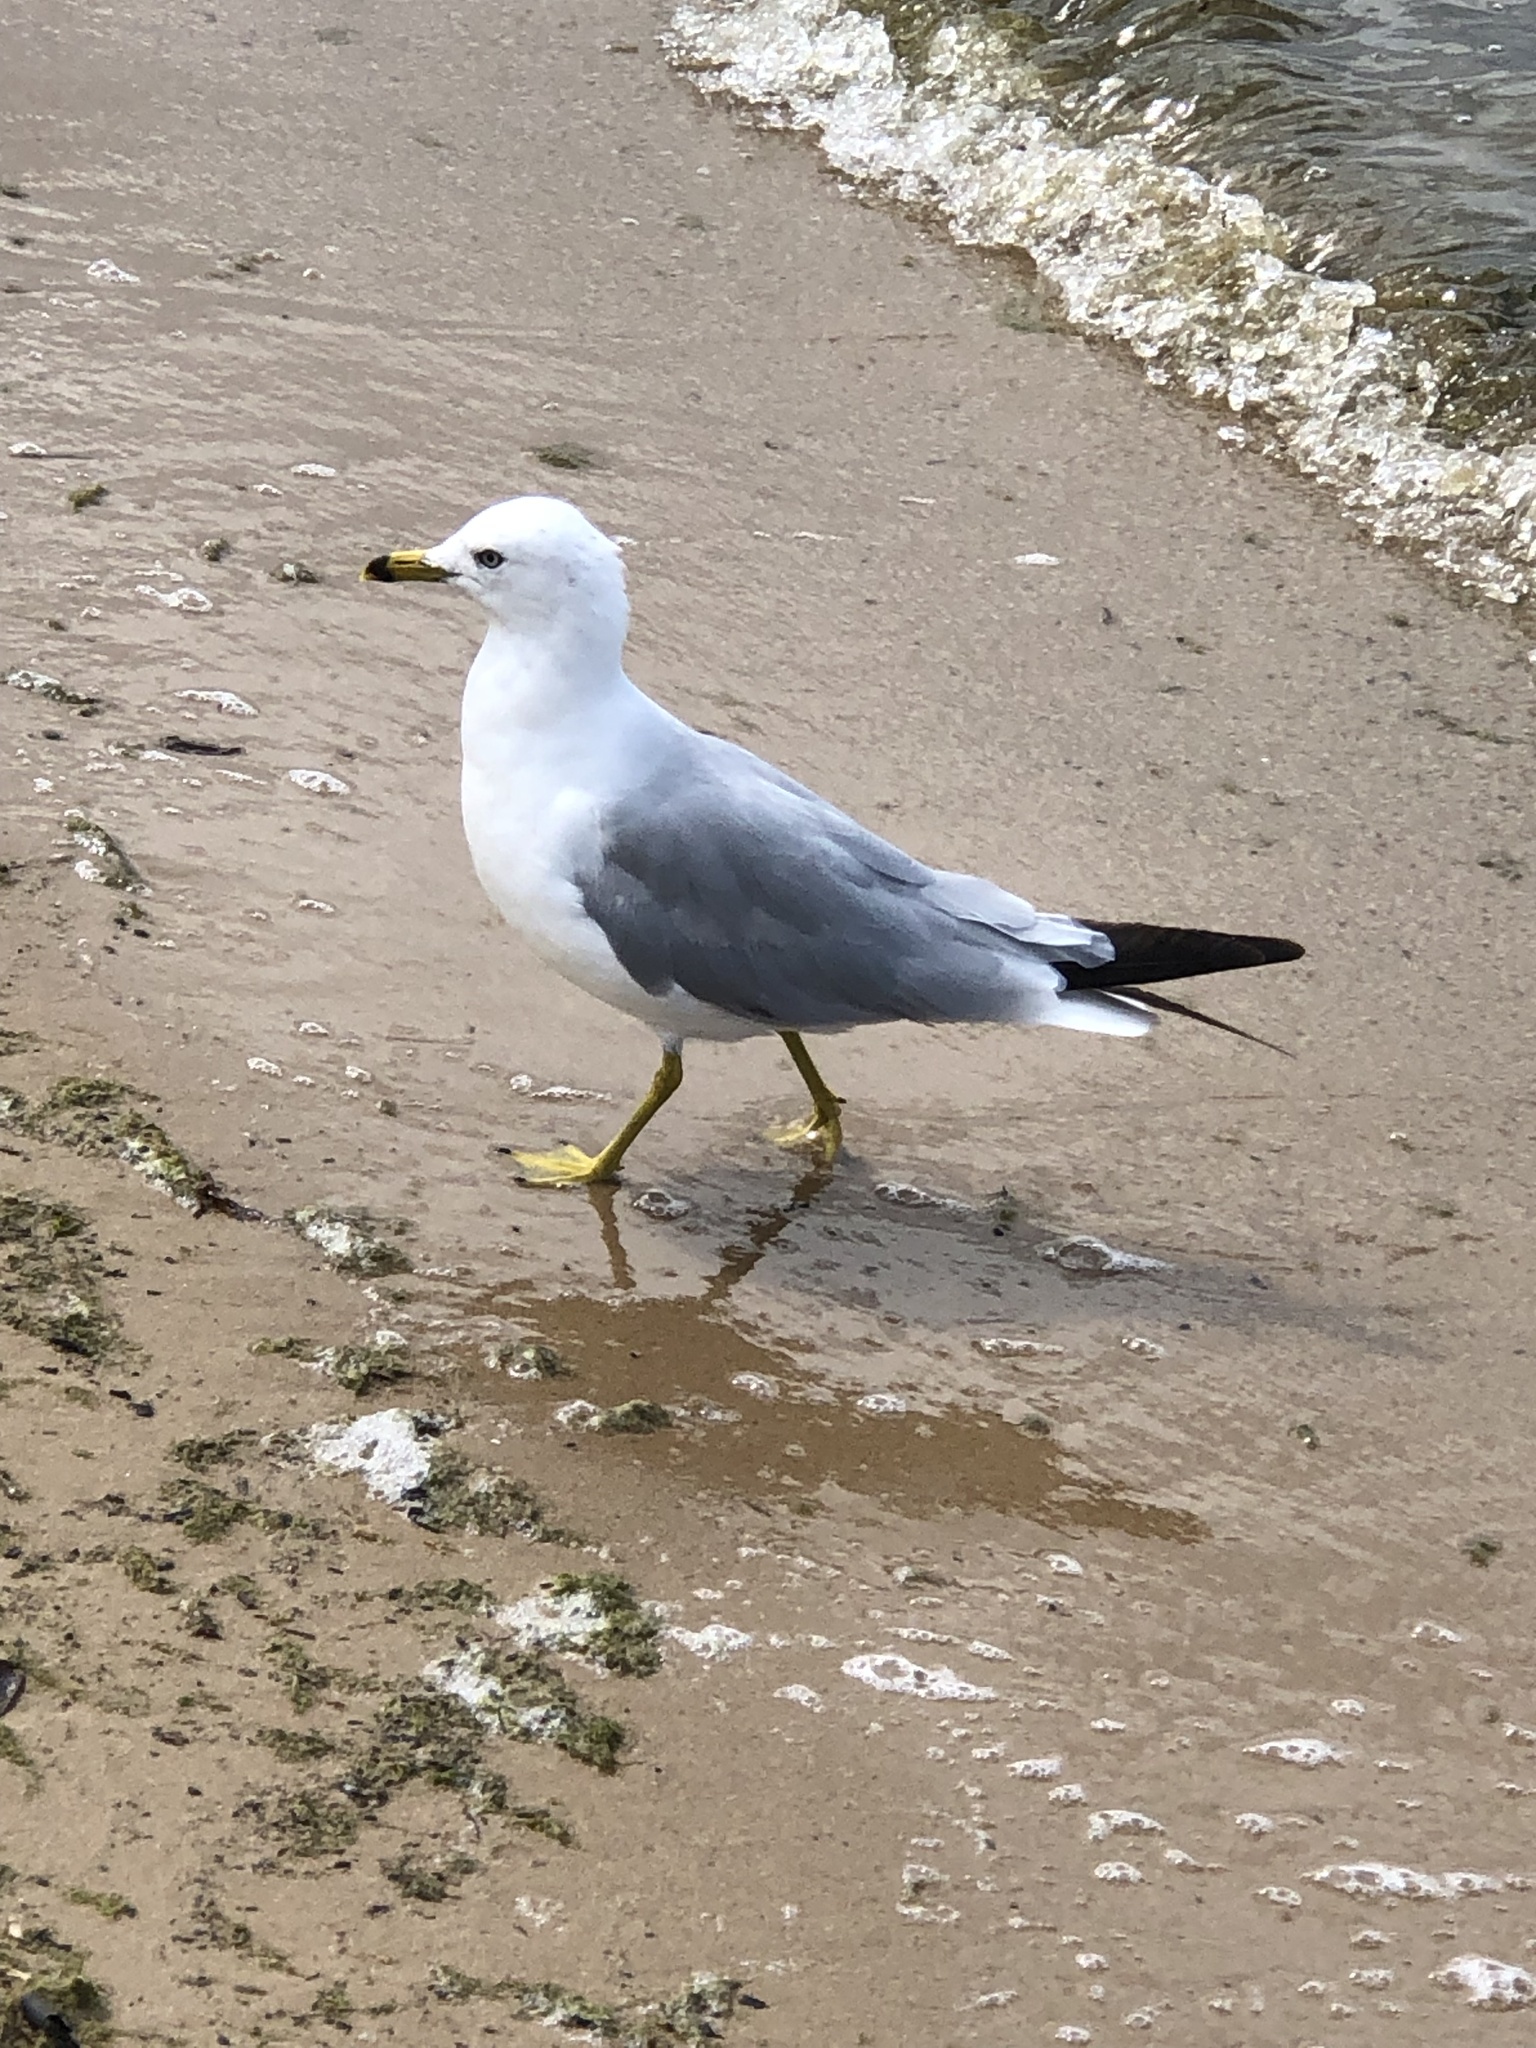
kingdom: Animalia
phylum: Chordata
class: Aves
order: Charadriiformes
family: Laridae
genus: Larus
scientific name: Larus delawarensis
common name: Ring-billed gull
